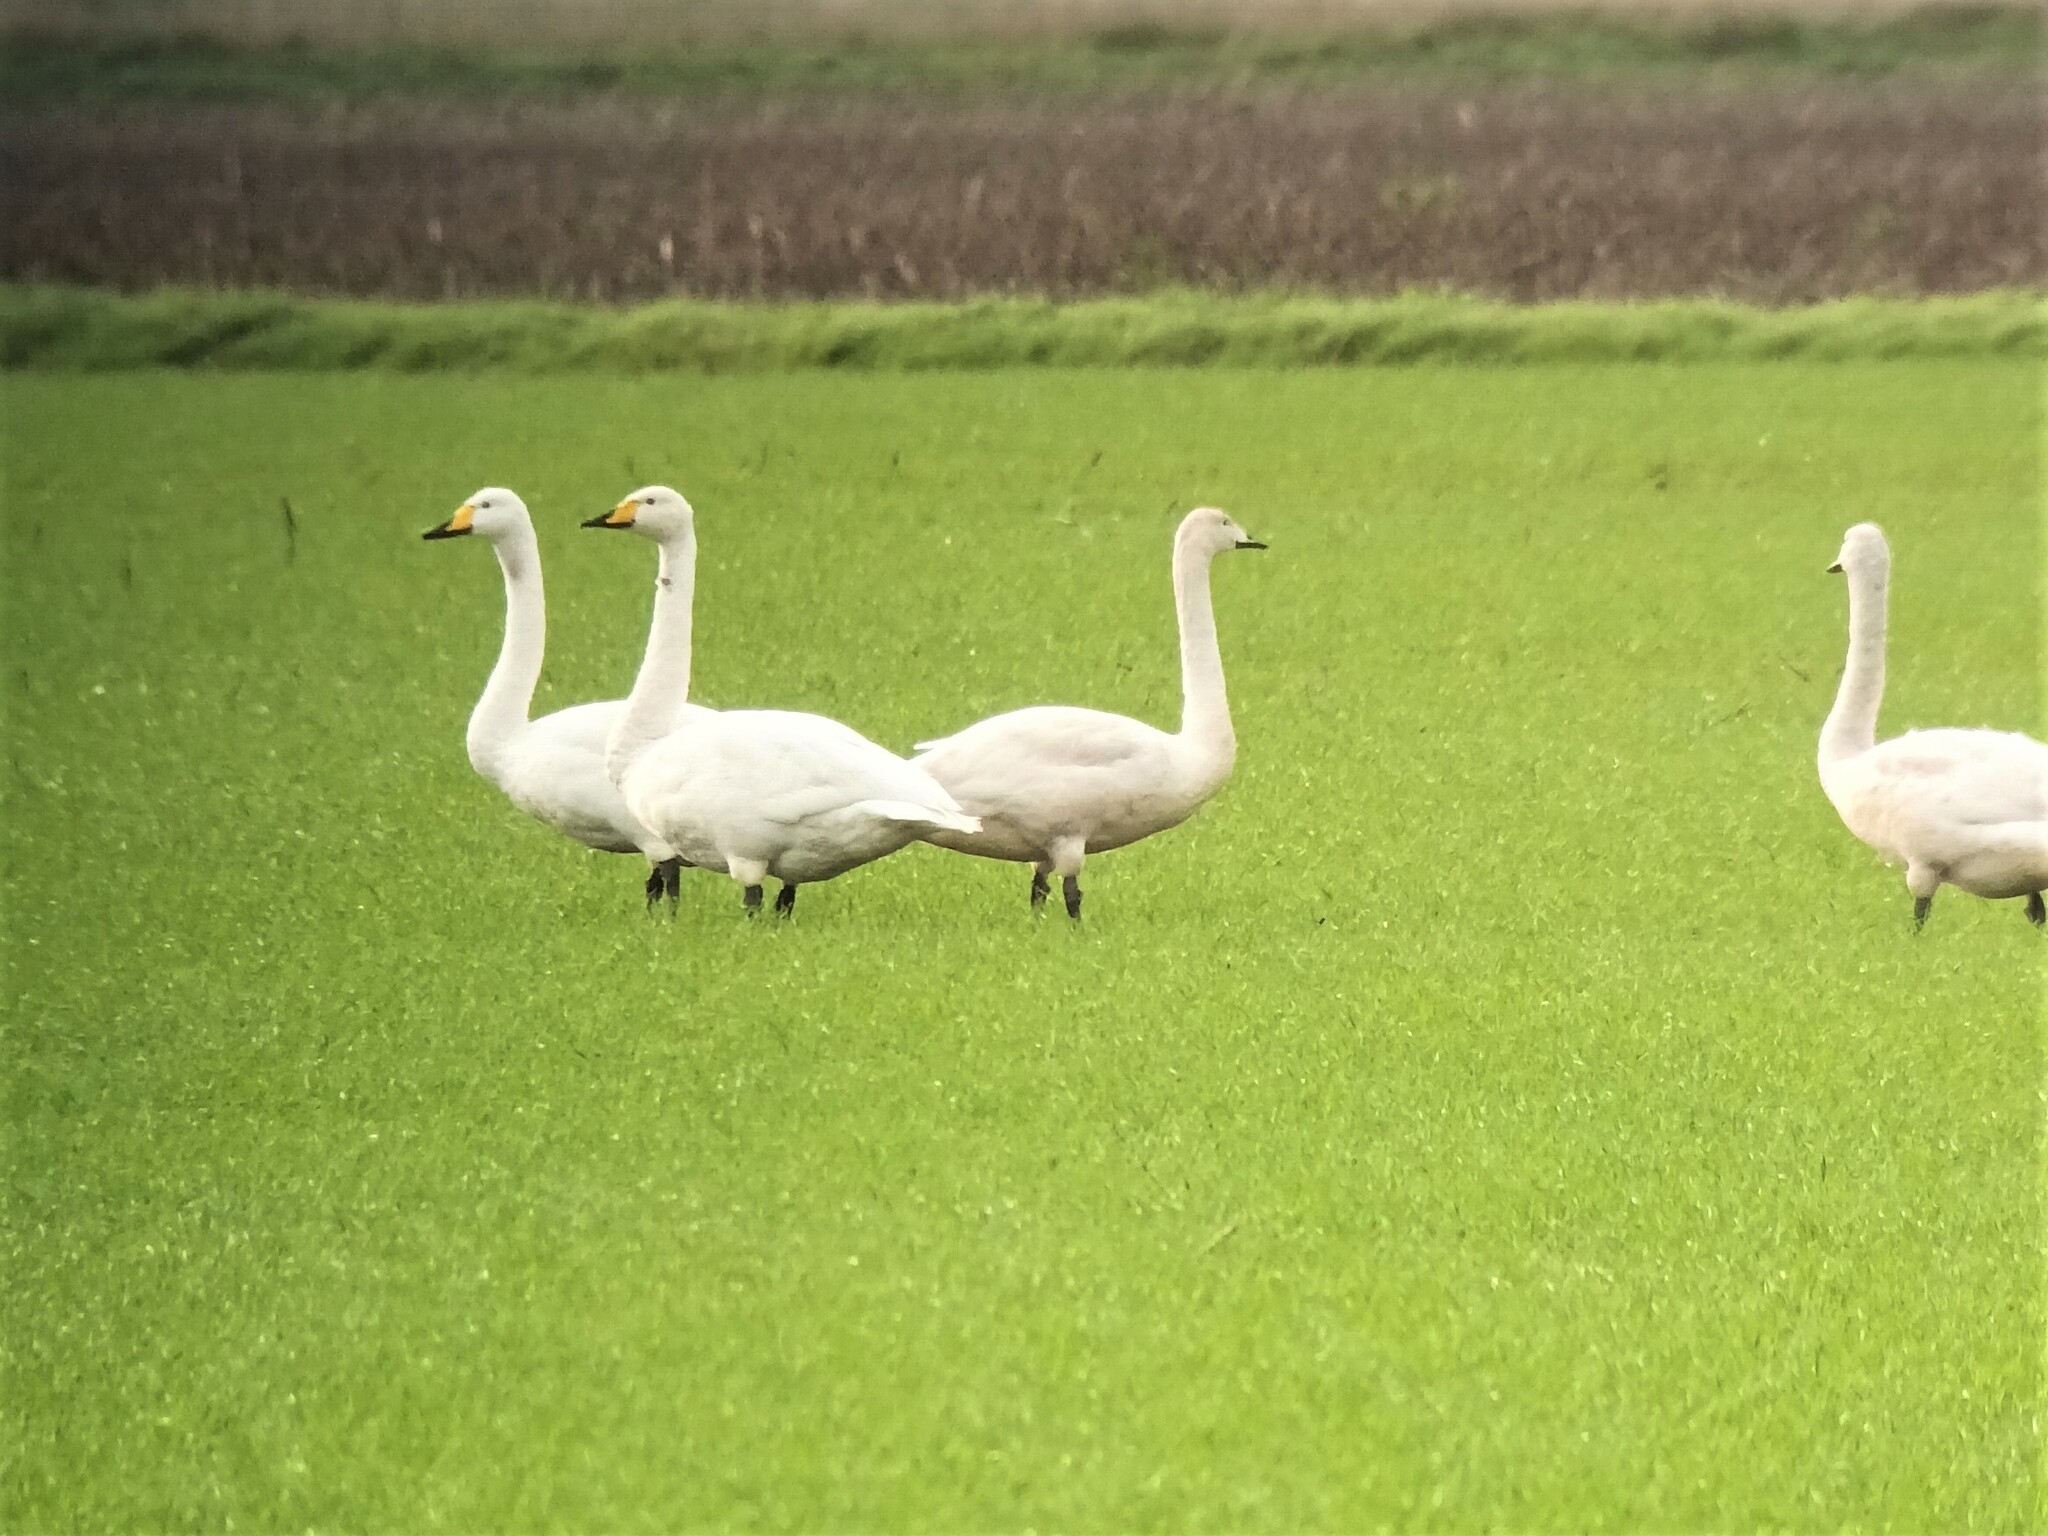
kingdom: Animalia
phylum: Chordata
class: Aves
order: Anseriformes
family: Anatidae
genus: Cygnus
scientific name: Cygnus cygnus
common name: Whooper swan
